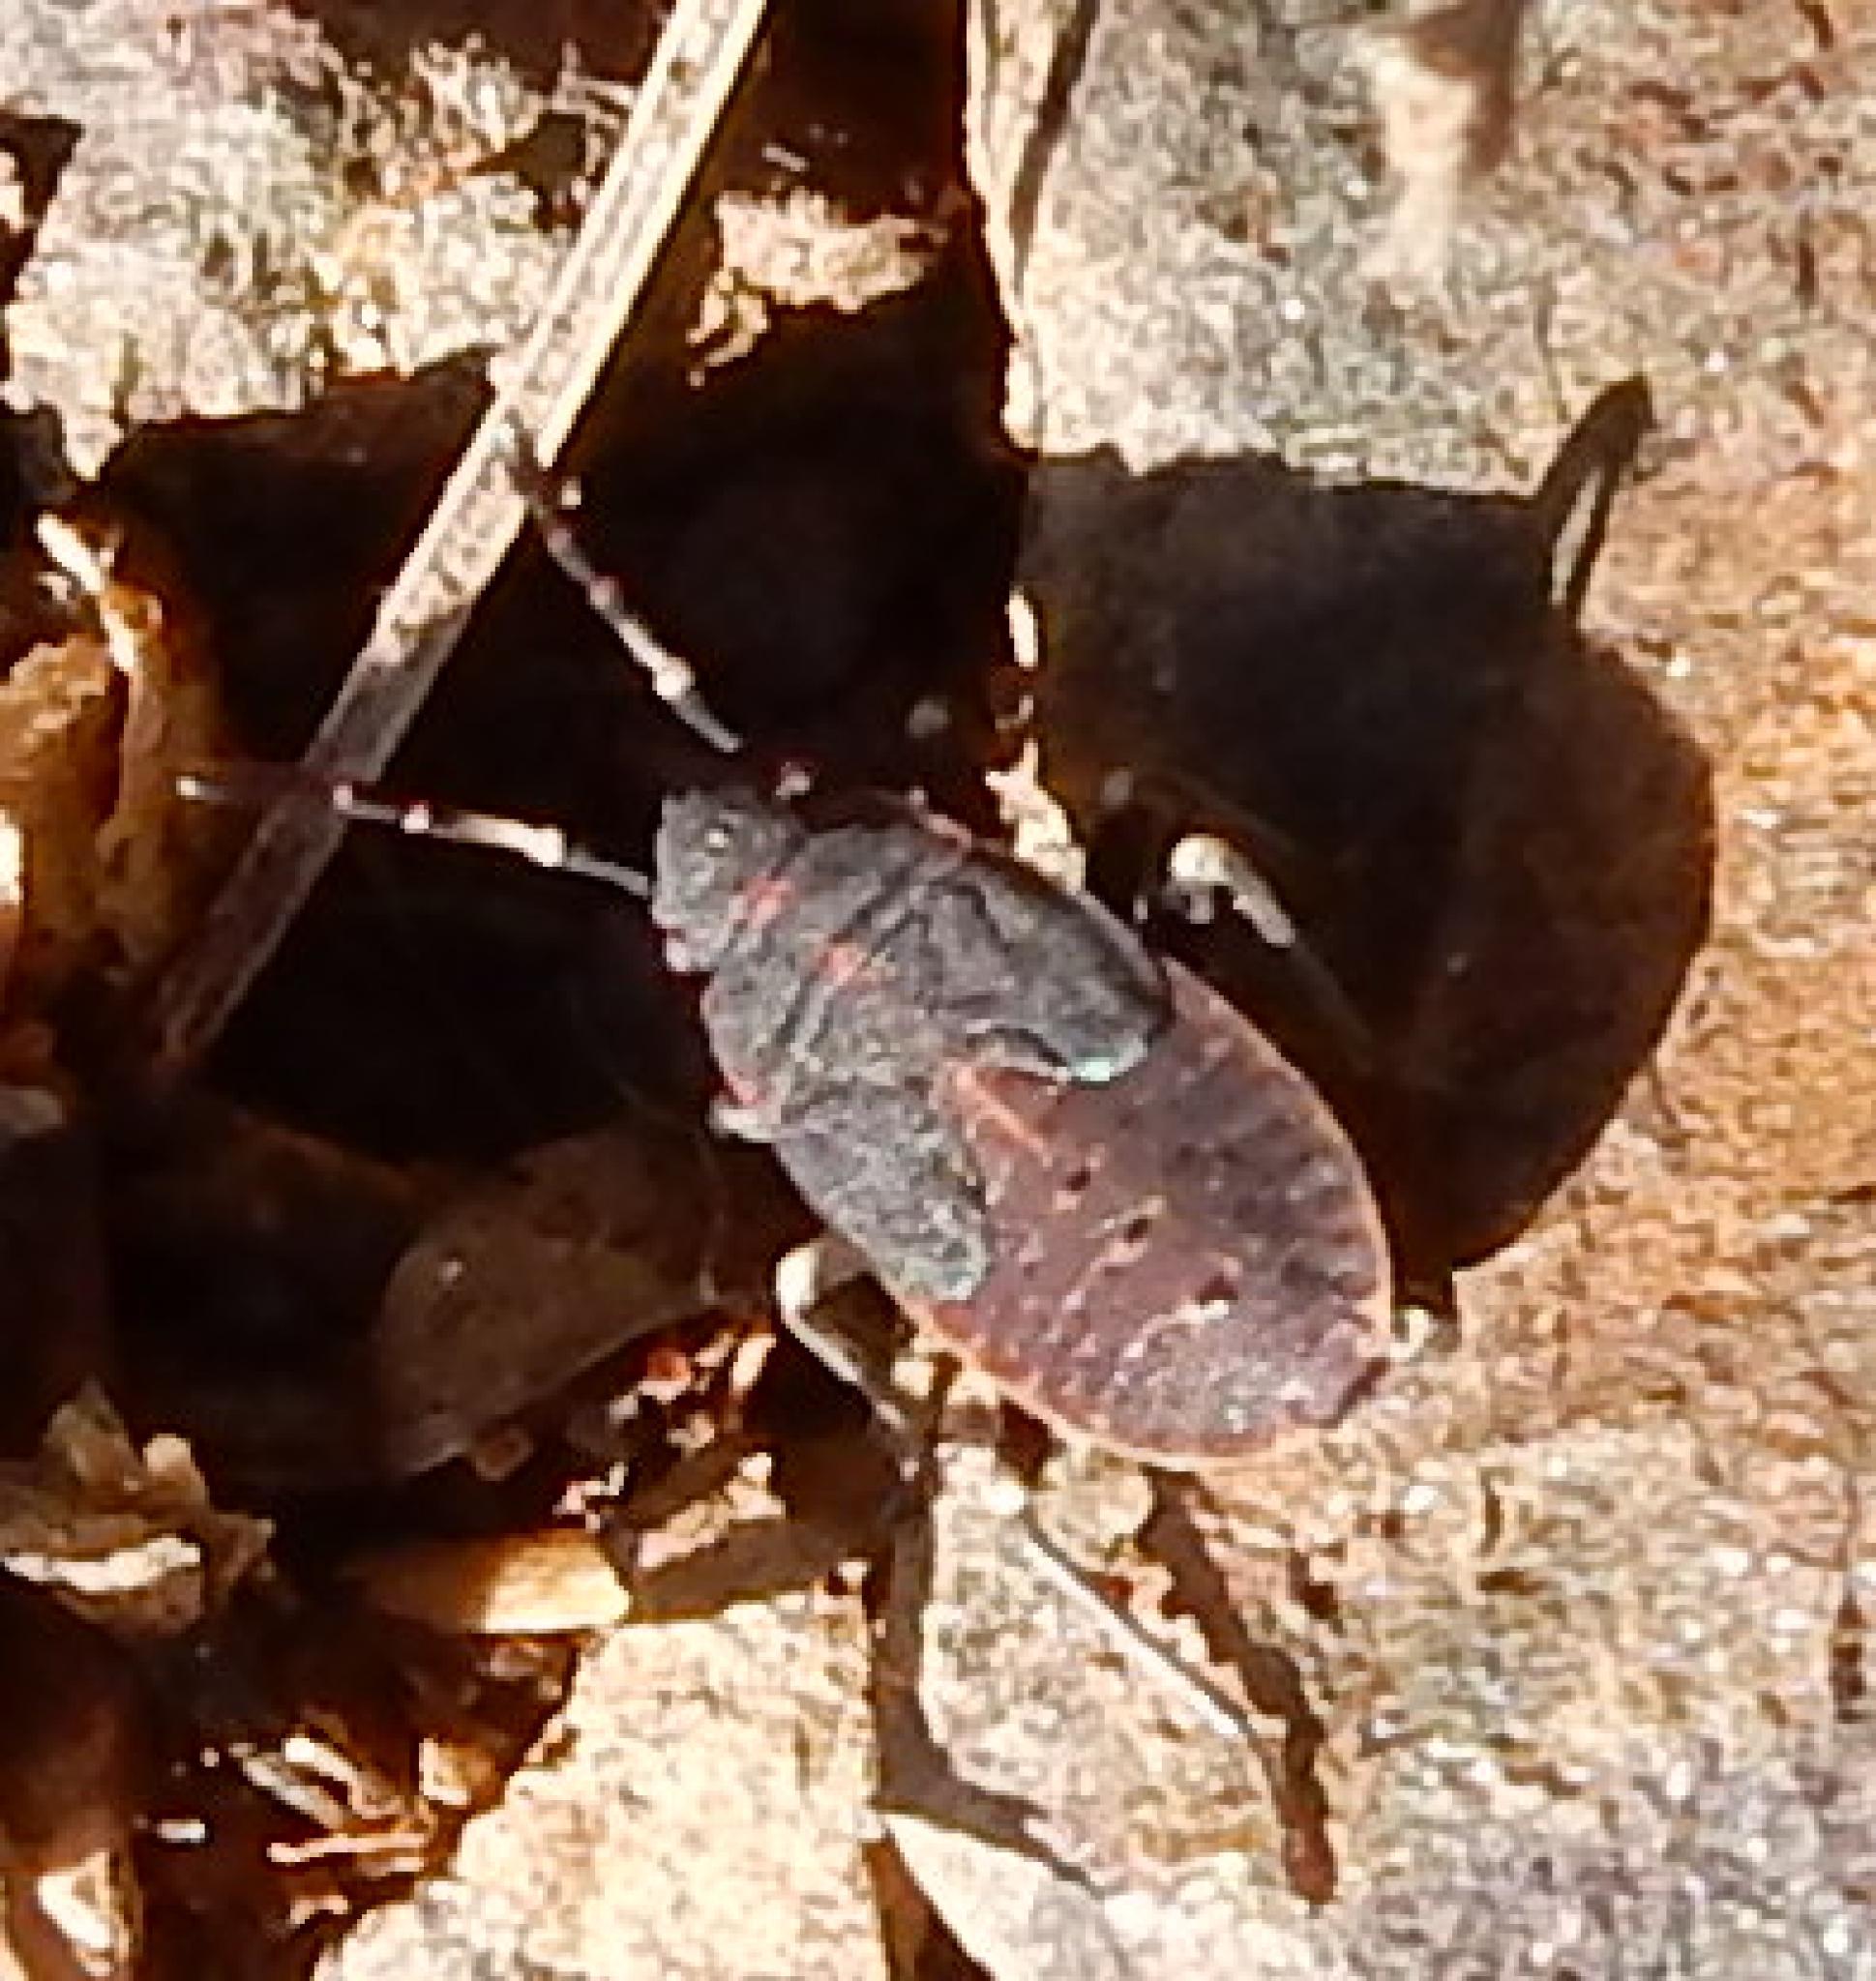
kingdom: Animalia
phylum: Arthropoda
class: Insecta
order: Hemiptera
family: Pyrrhocoridae
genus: Scantius
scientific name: Scantius forsteri
